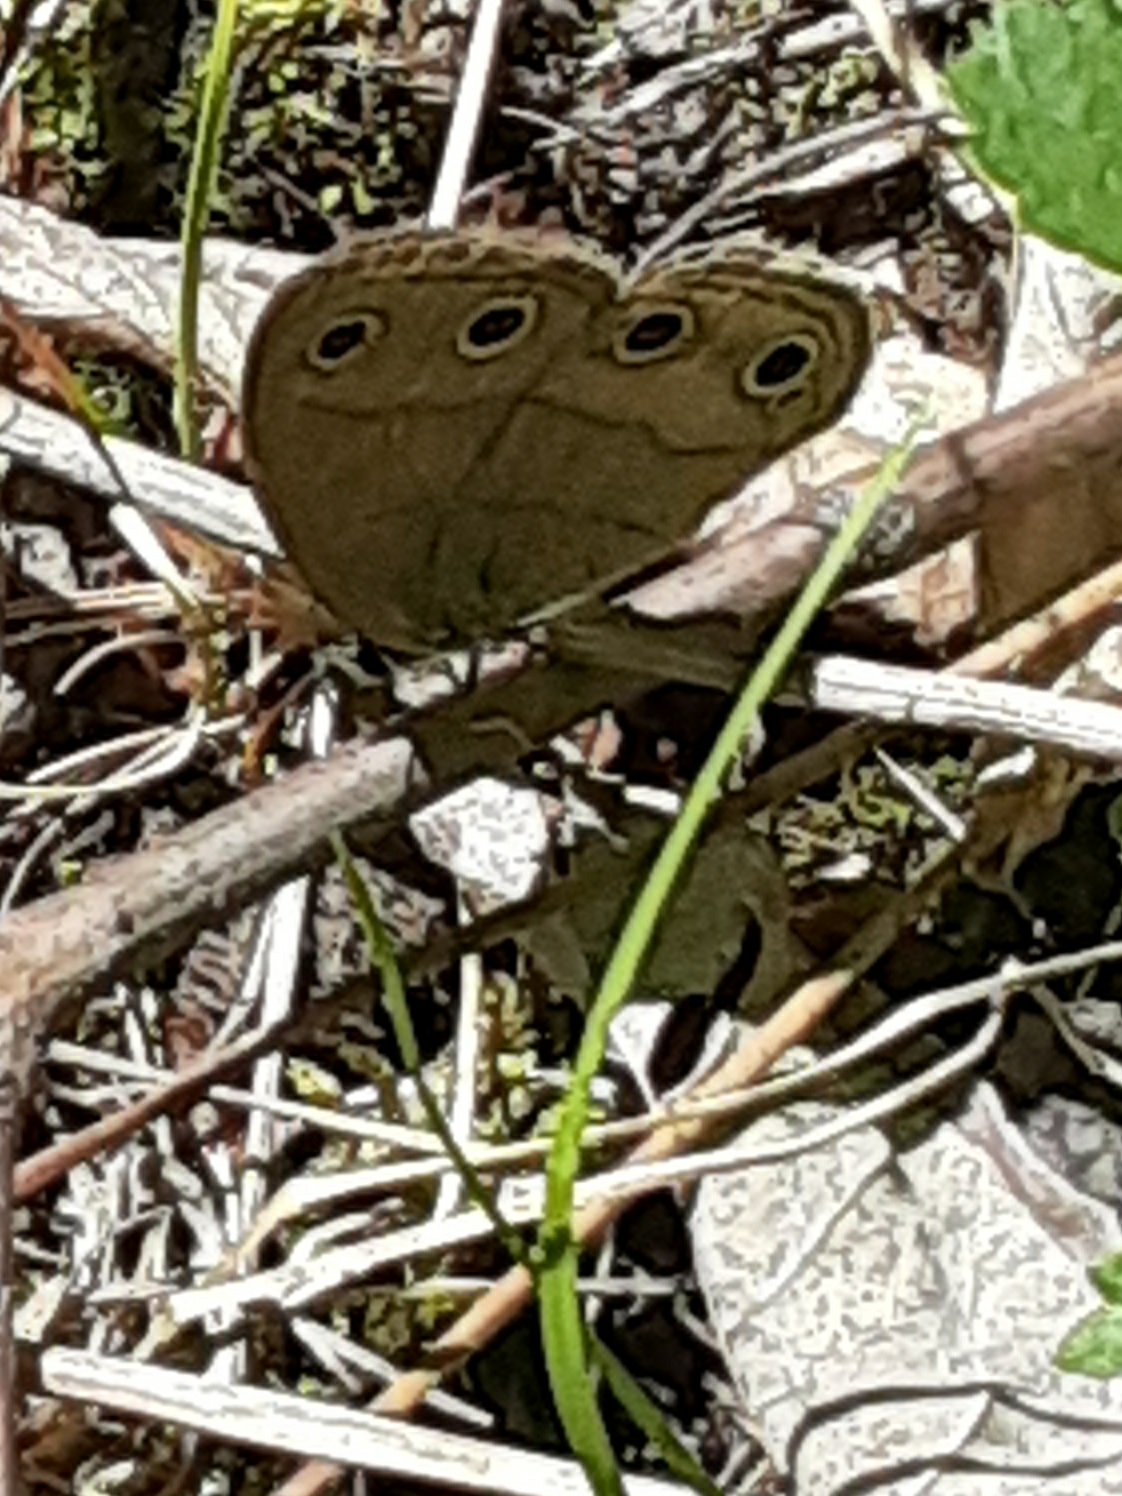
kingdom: Animalia
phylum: Arthropoda
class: Insecta
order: Lepidoptera
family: Nymphalidae
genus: Euptychia
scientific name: Euptychia cymela
